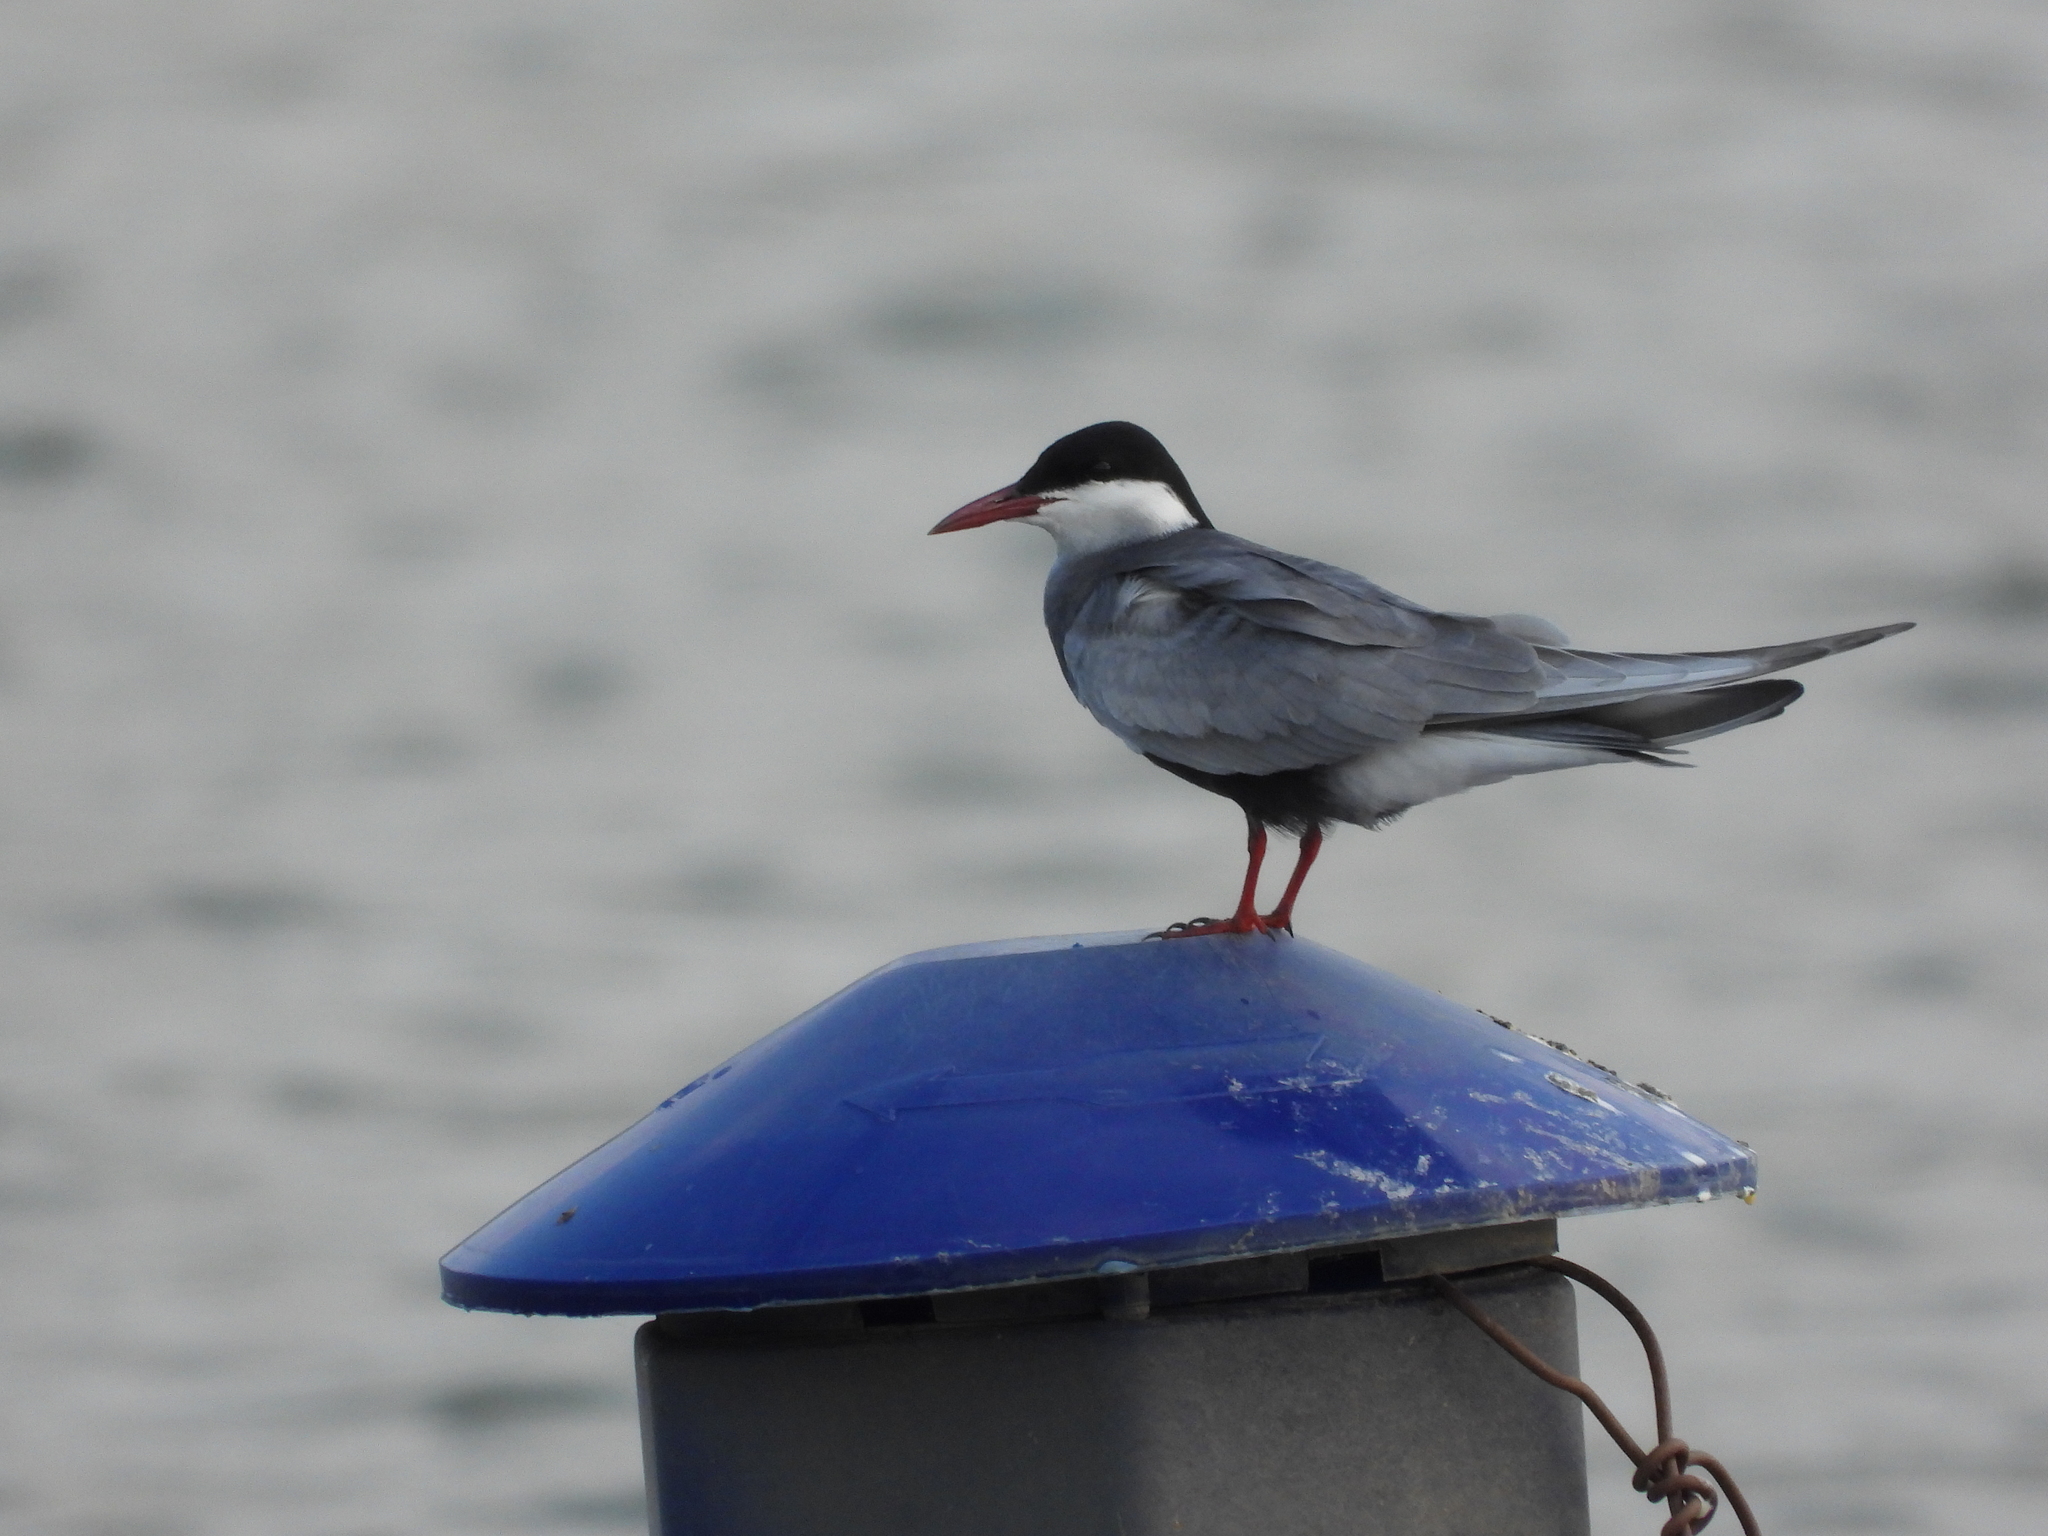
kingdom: Animalia
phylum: Chordata
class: Aves
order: Charadriiformes
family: Laridae
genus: Chlidonias
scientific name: Chlidonias hybrida
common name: Whiskered tern
